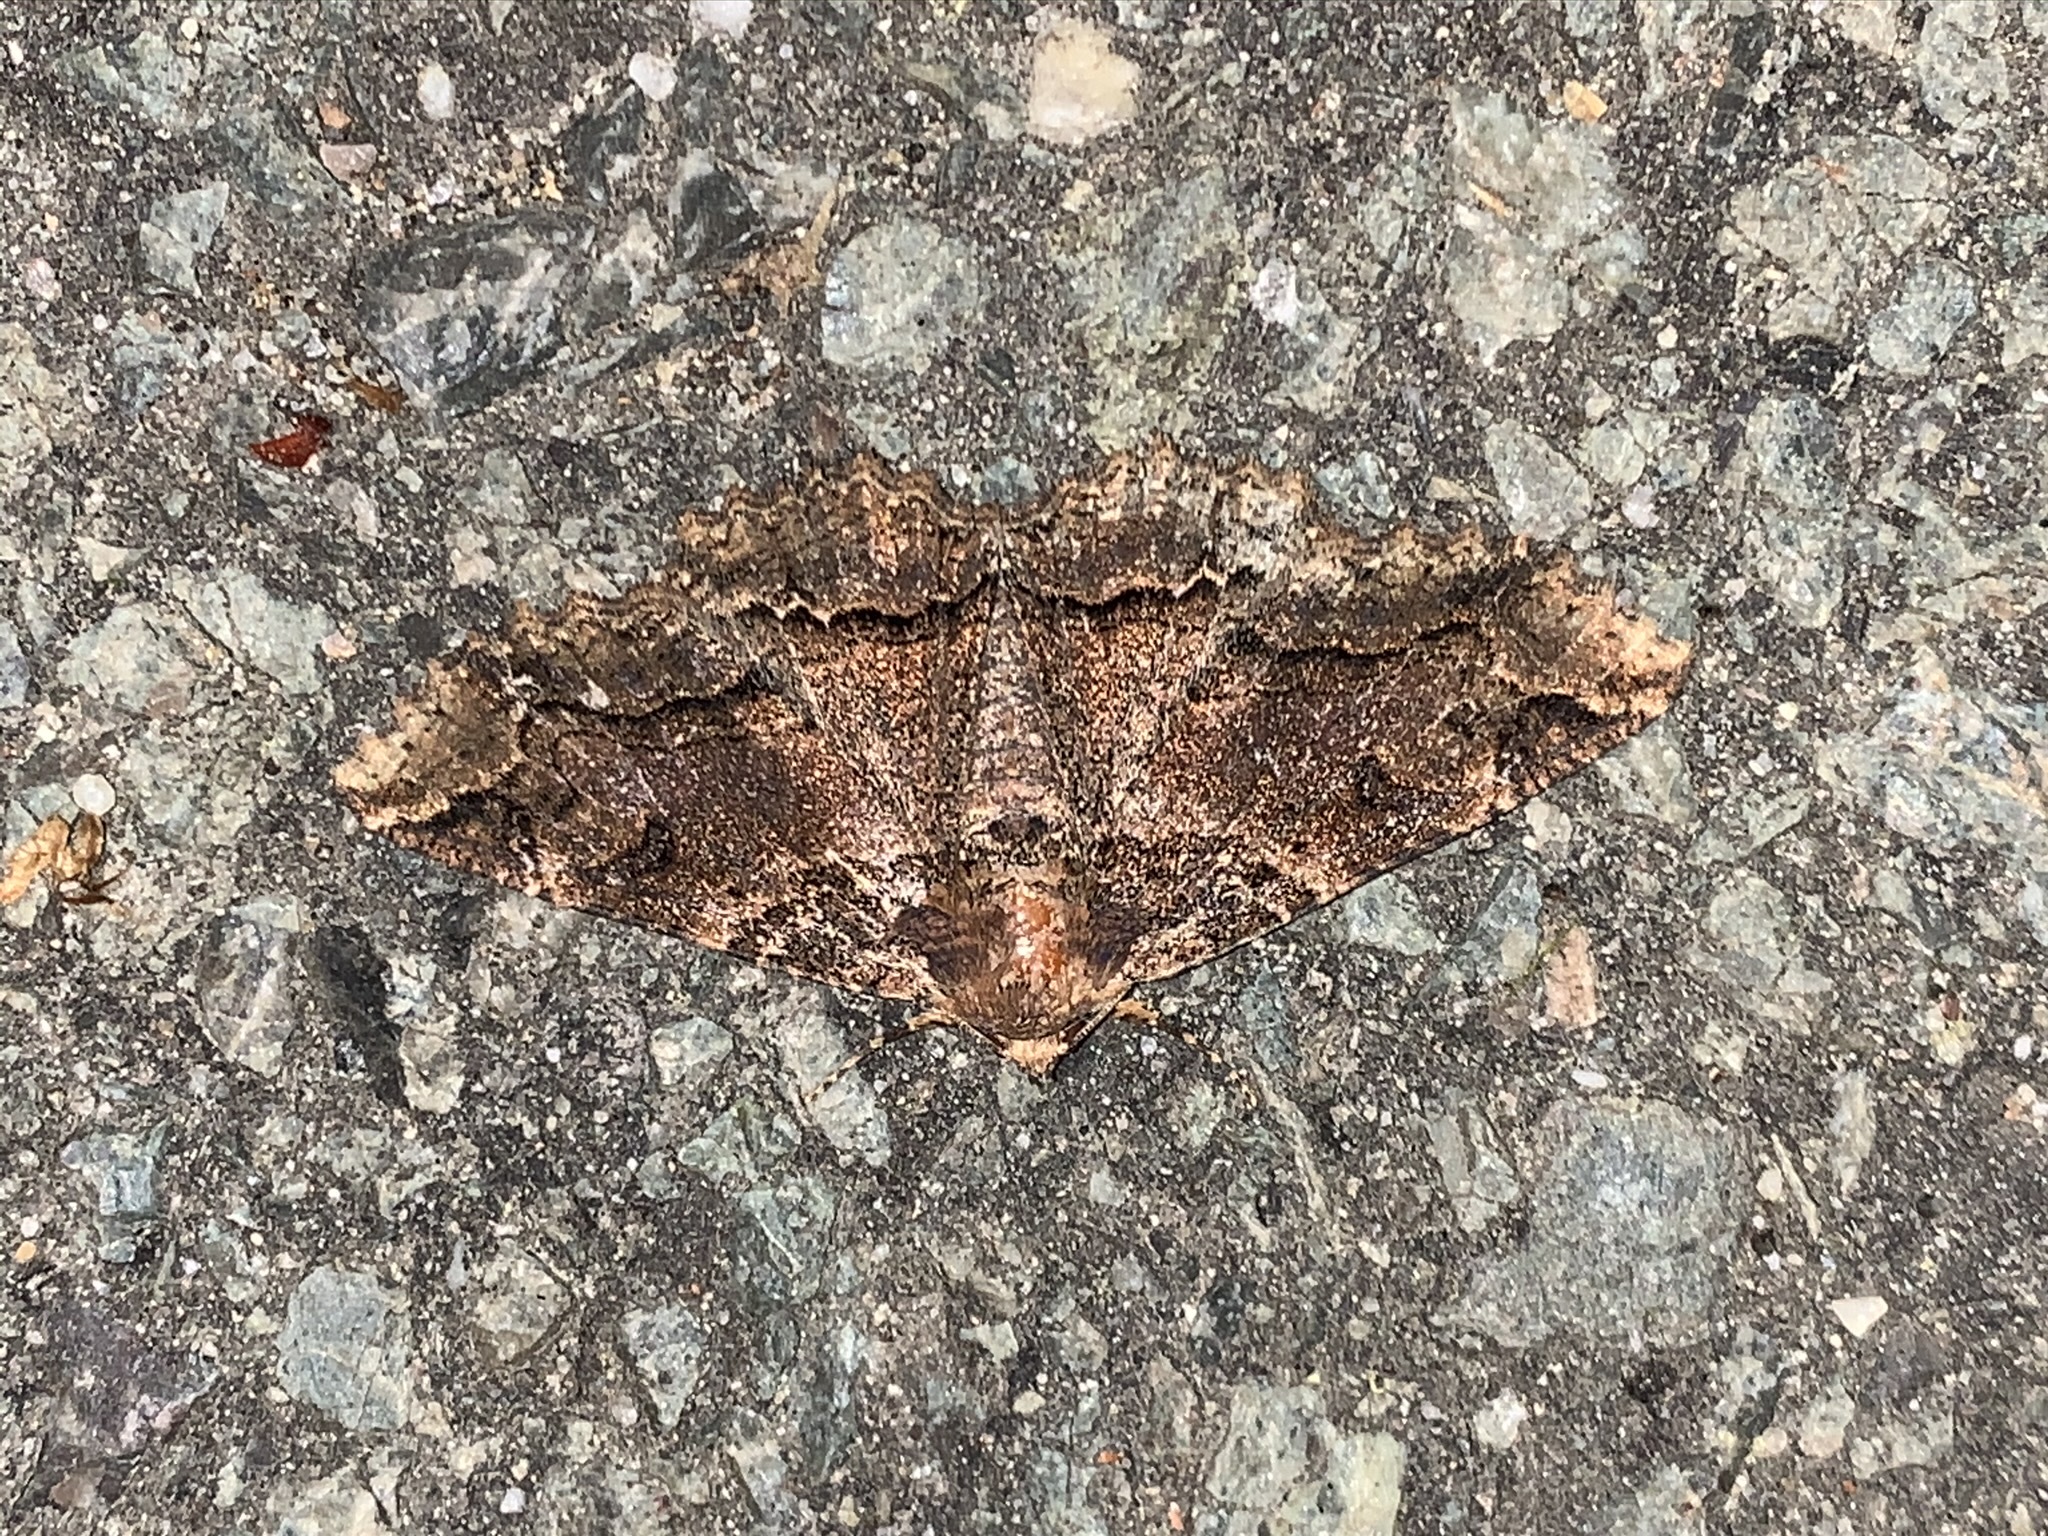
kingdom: Animalia
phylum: Arthropoda
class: Insecta
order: Lepidoptera
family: Erebidae
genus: Zale
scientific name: Zale galbanata
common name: Maple zale
